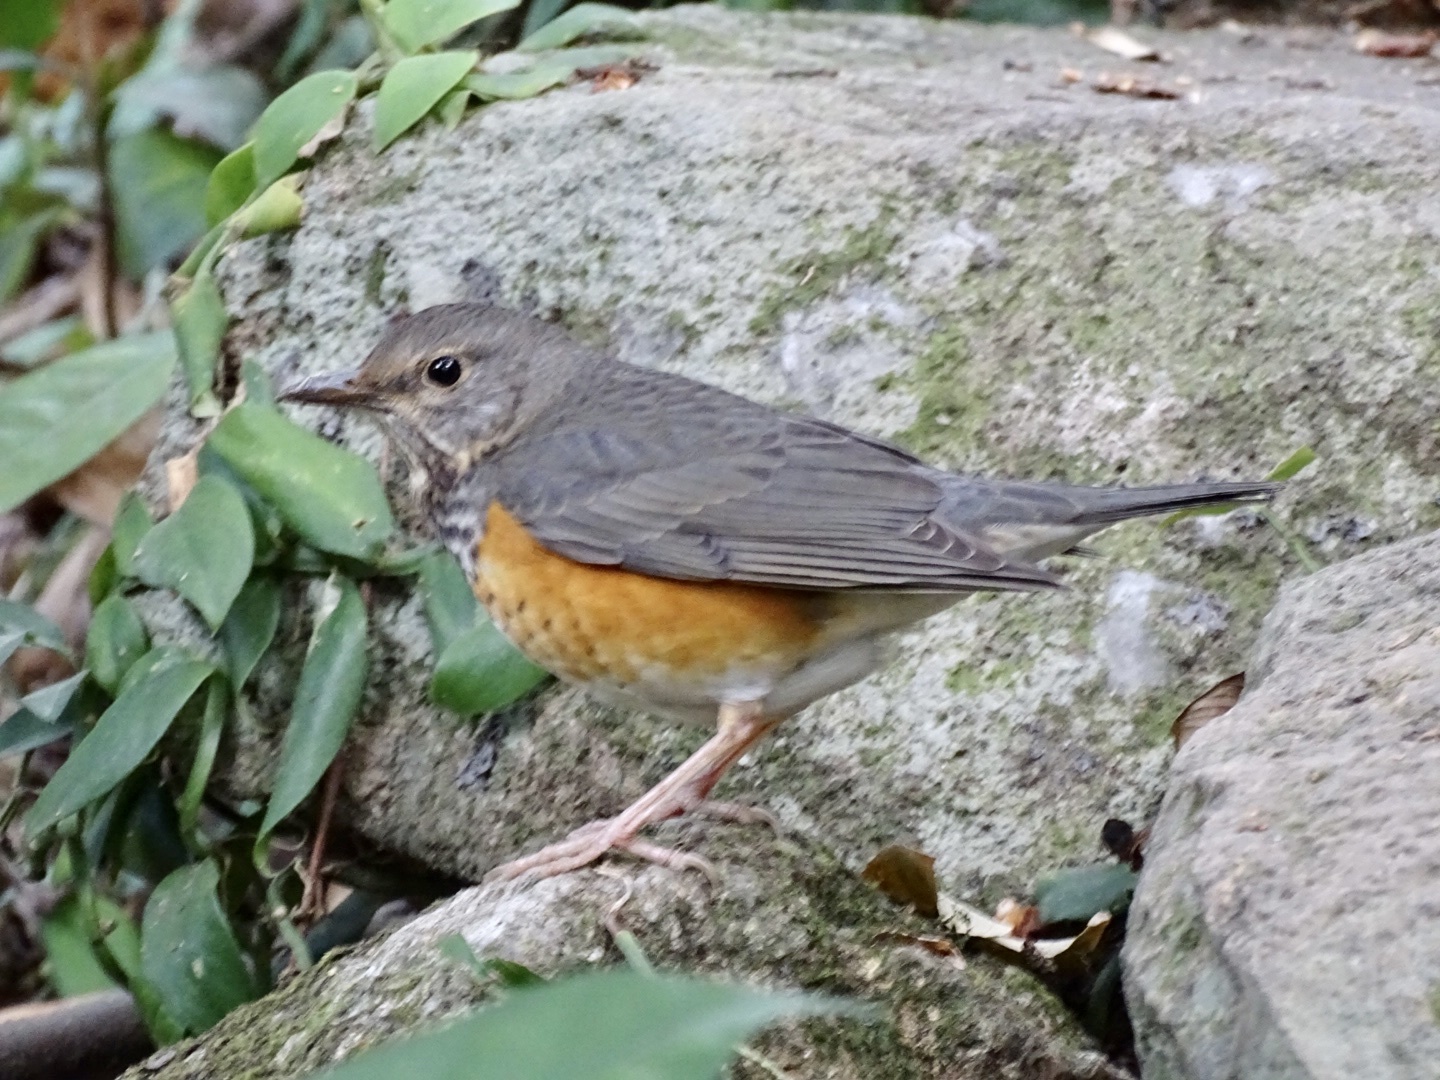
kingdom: Animalia
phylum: Chordata
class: Aves
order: Passeriformes
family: Turdidae
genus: Turdus
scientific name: Turdus hortulorum
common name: Grey-backed thrush
